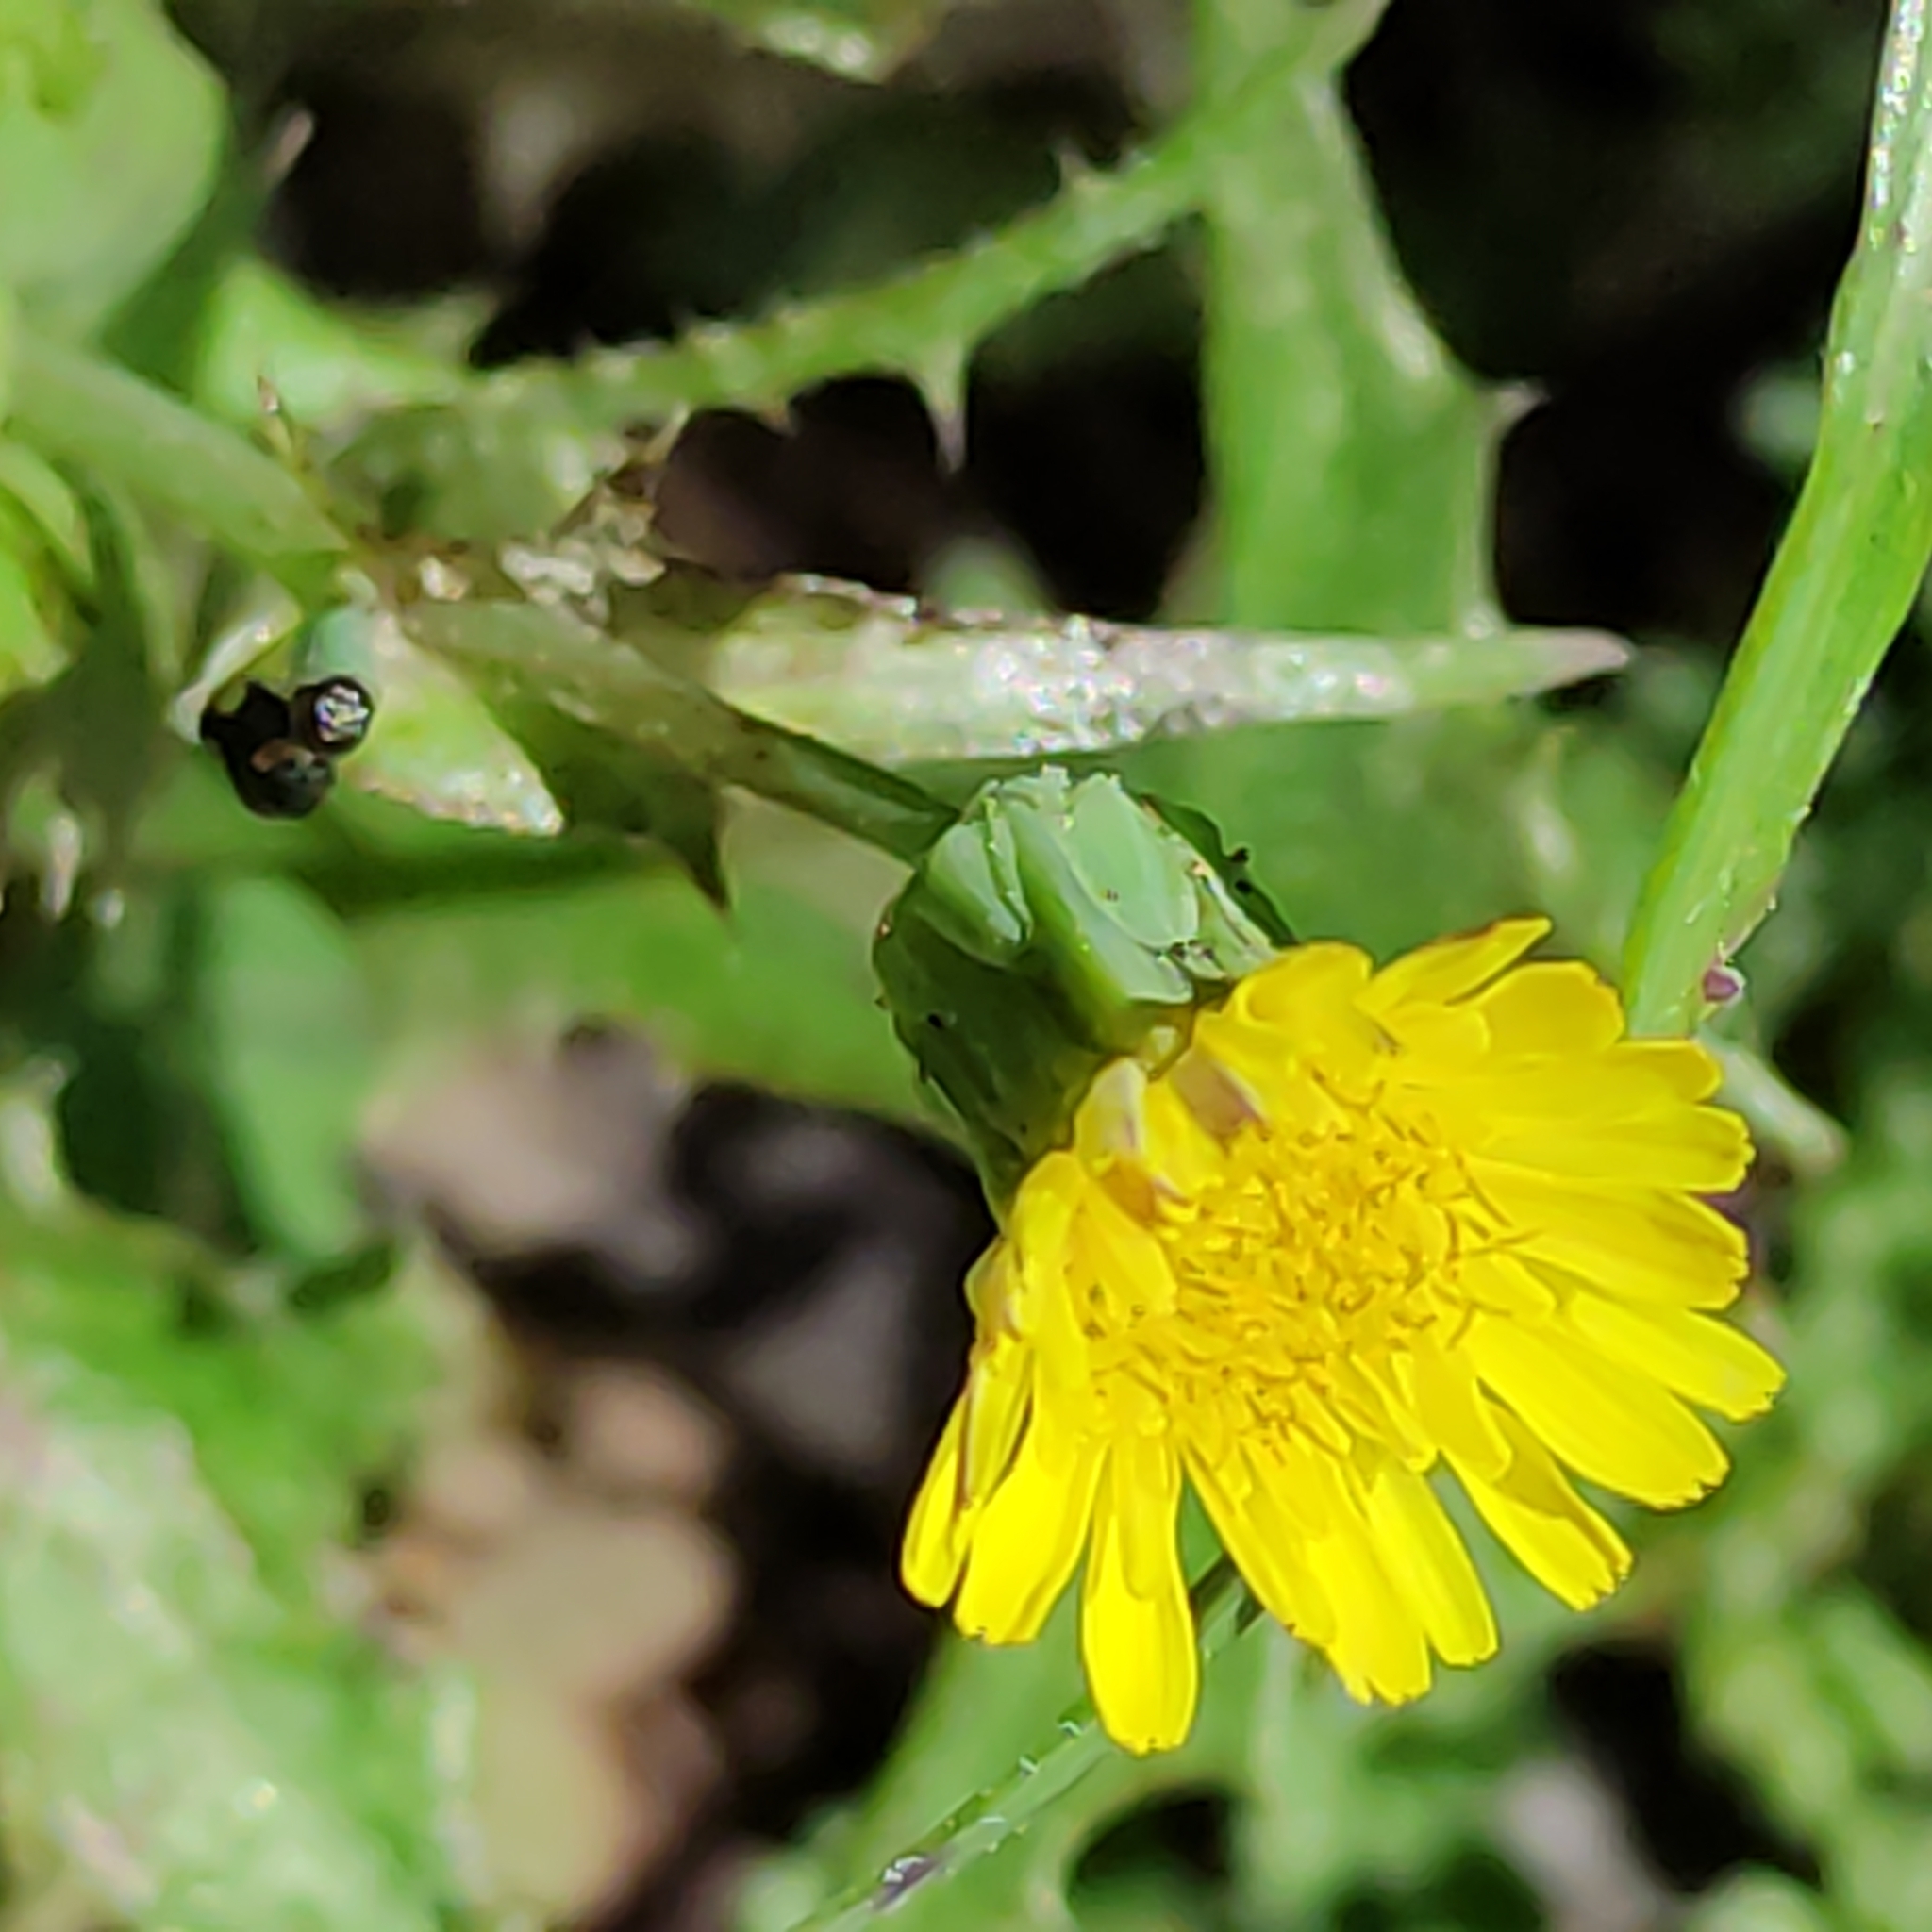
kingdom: Plantae
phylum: Tracheophyta
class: Magnoliopsida
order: Asterales
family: Asteraceae
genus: Sonchus
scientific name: Sonchus oleraceus
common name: Common sowthistle
